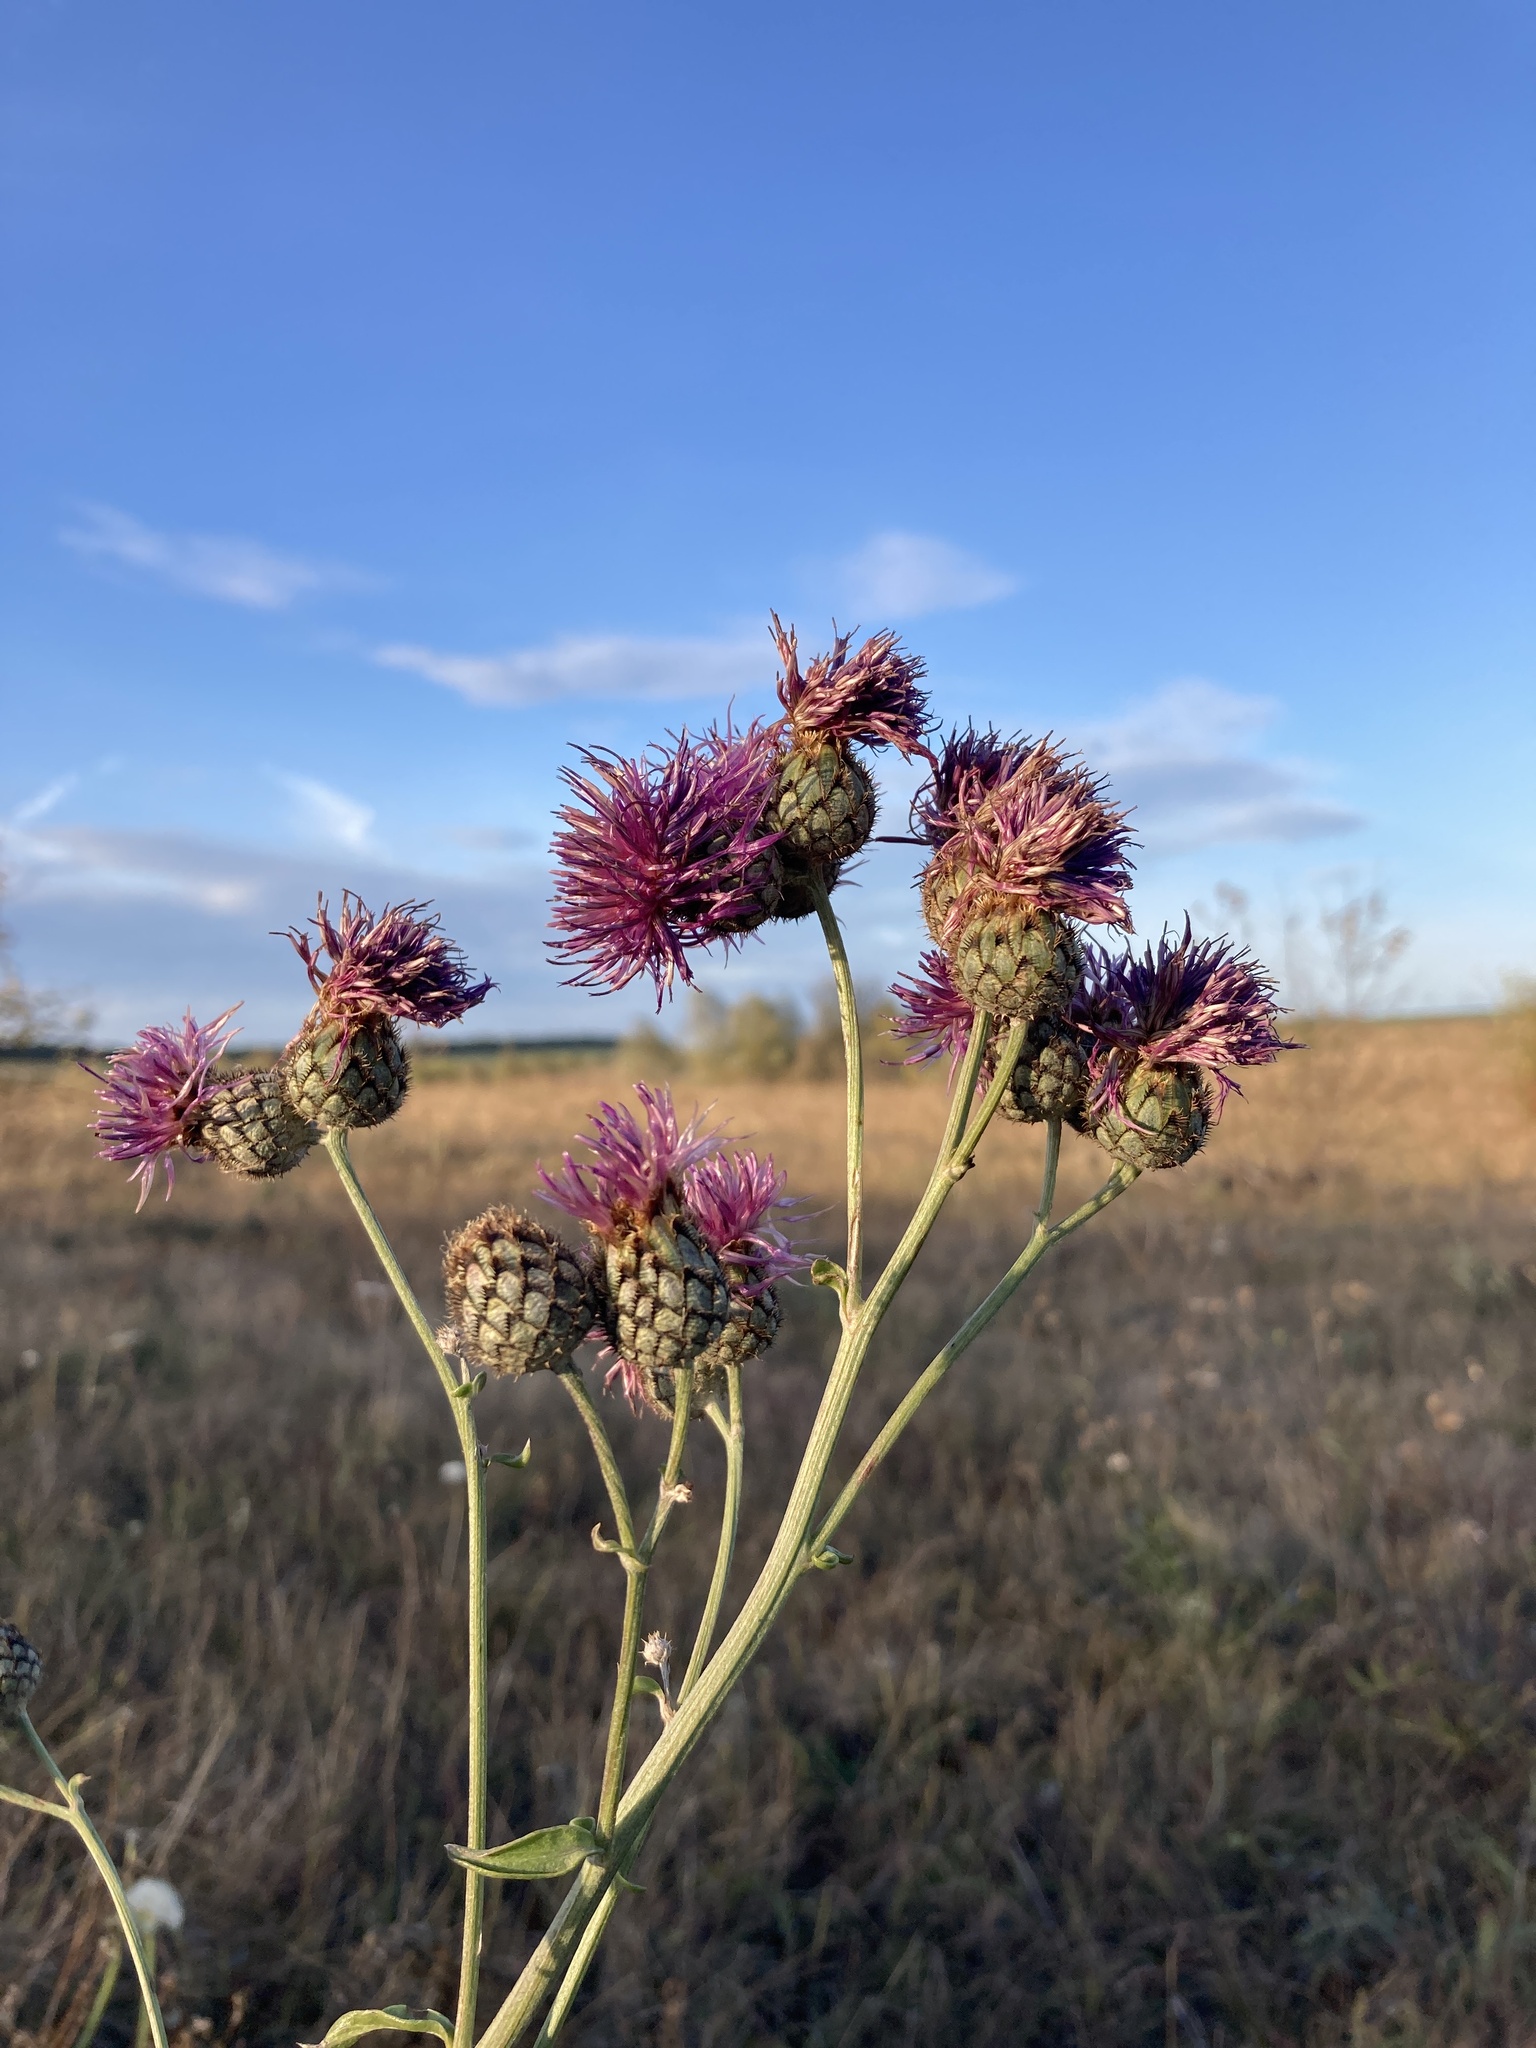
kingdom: Plantae
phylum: Tracheophyta
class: Magnoliopsida
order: Asterales
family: Asteraceae
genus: Centaurea
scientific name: Centaurea scabiosa
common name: Greater knapweed
